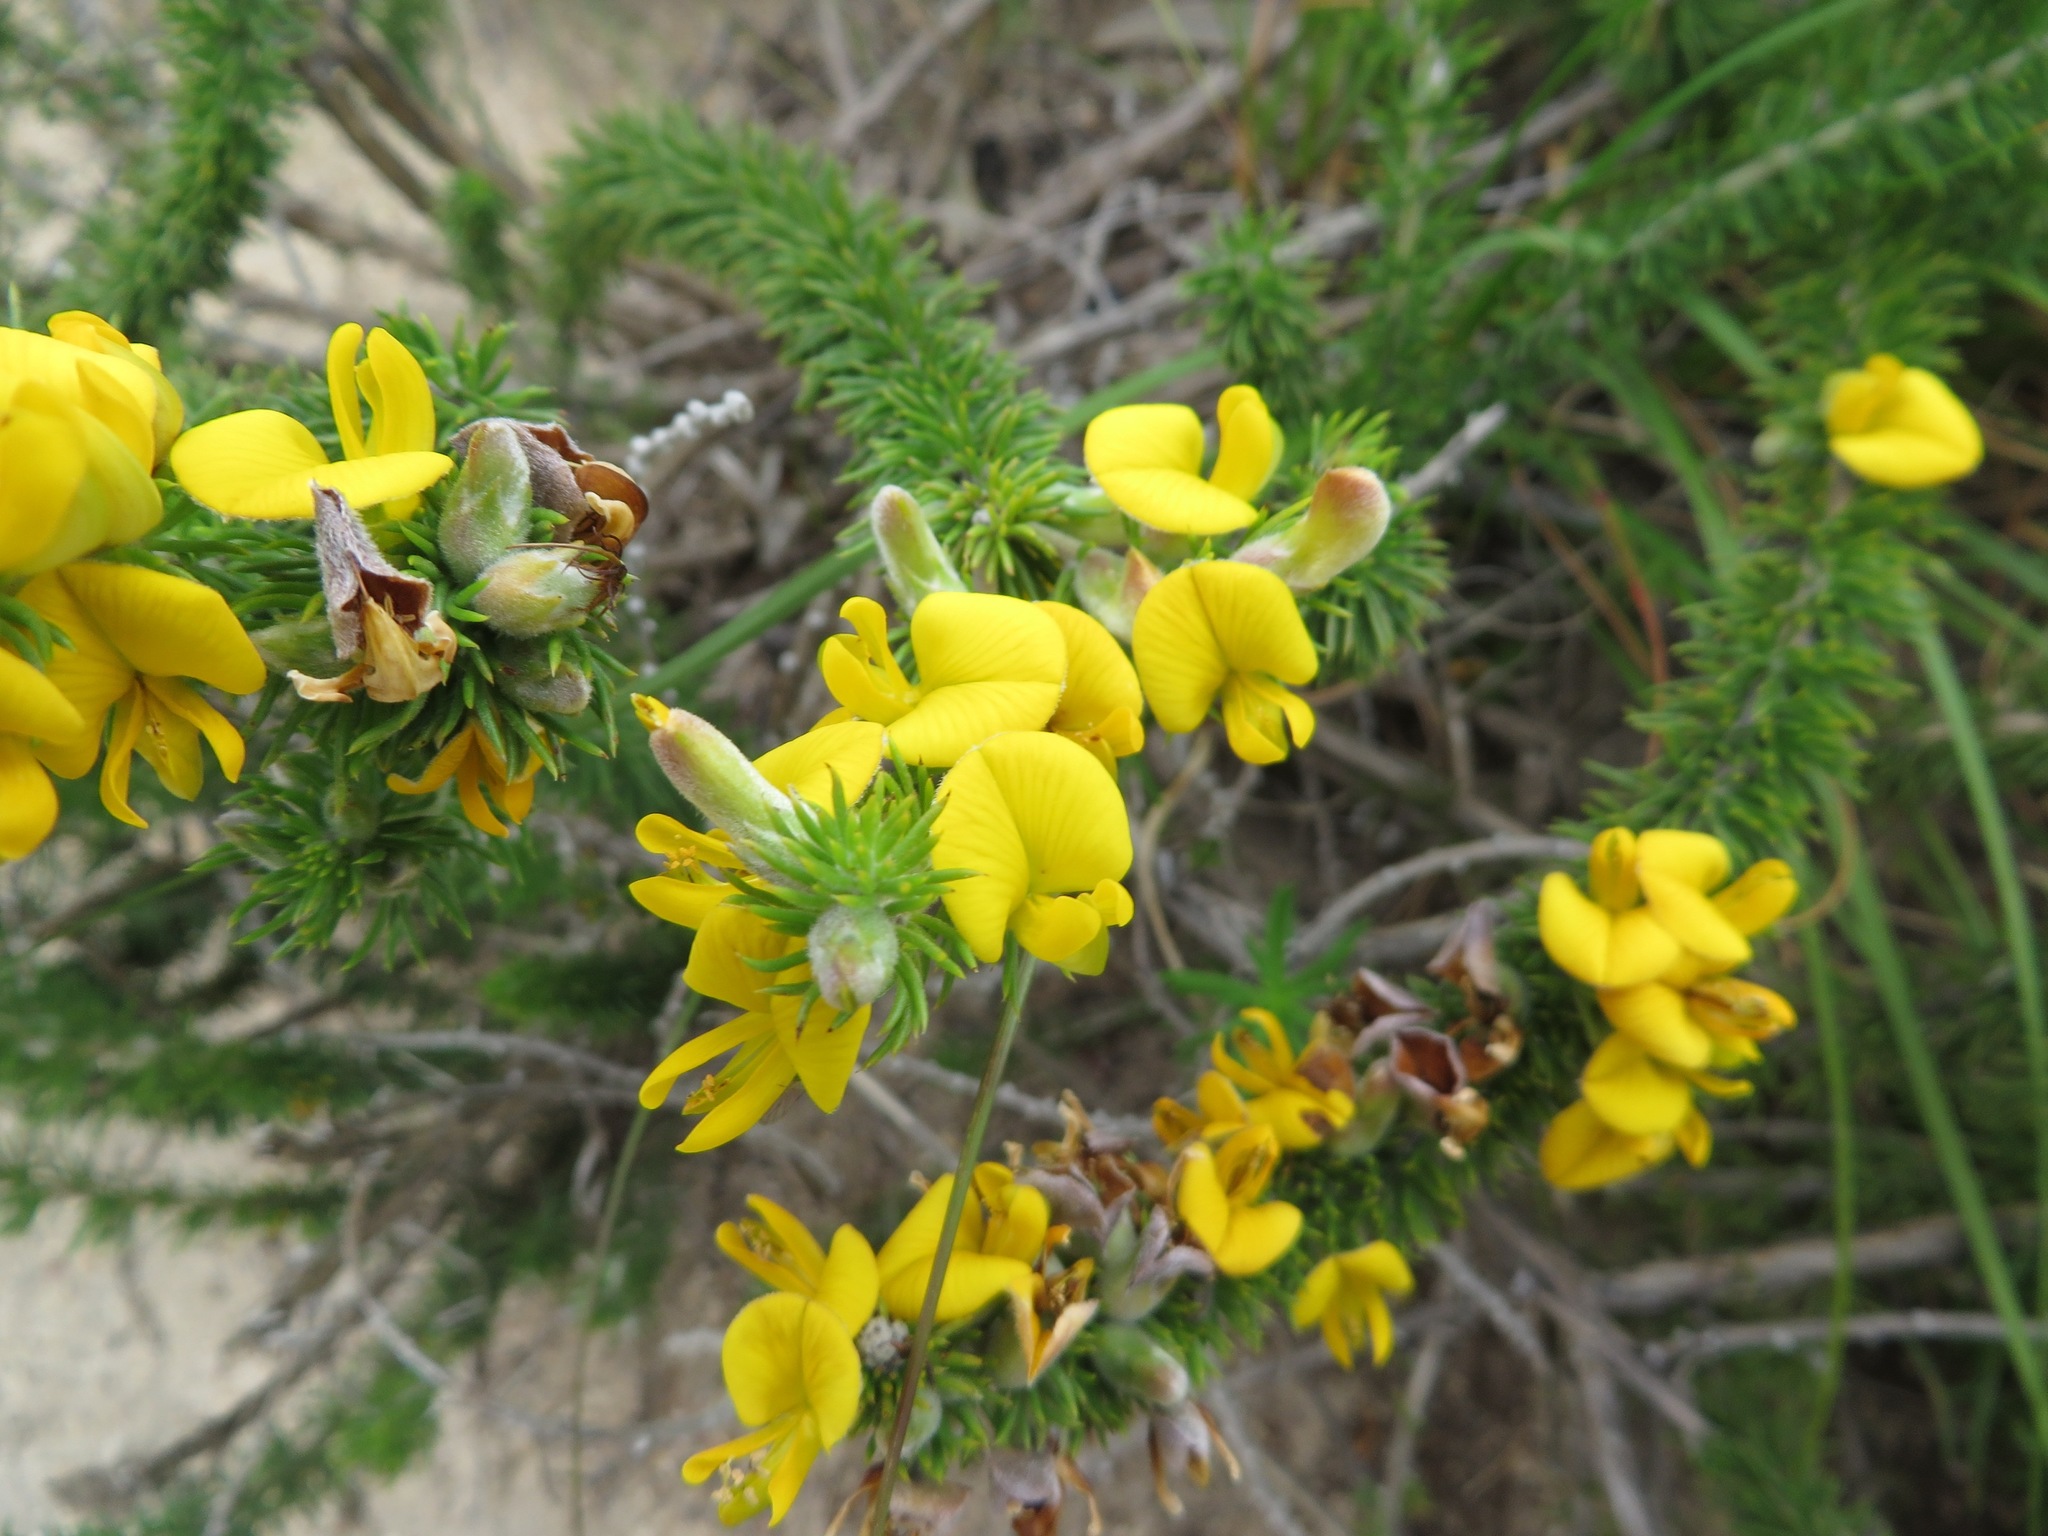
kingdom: Plantae
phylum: Tracheophyta
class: Magnoliopsida
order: Fabales
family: Fabaceae
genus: Aspalathus
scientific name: Aspalathus laricifolia
